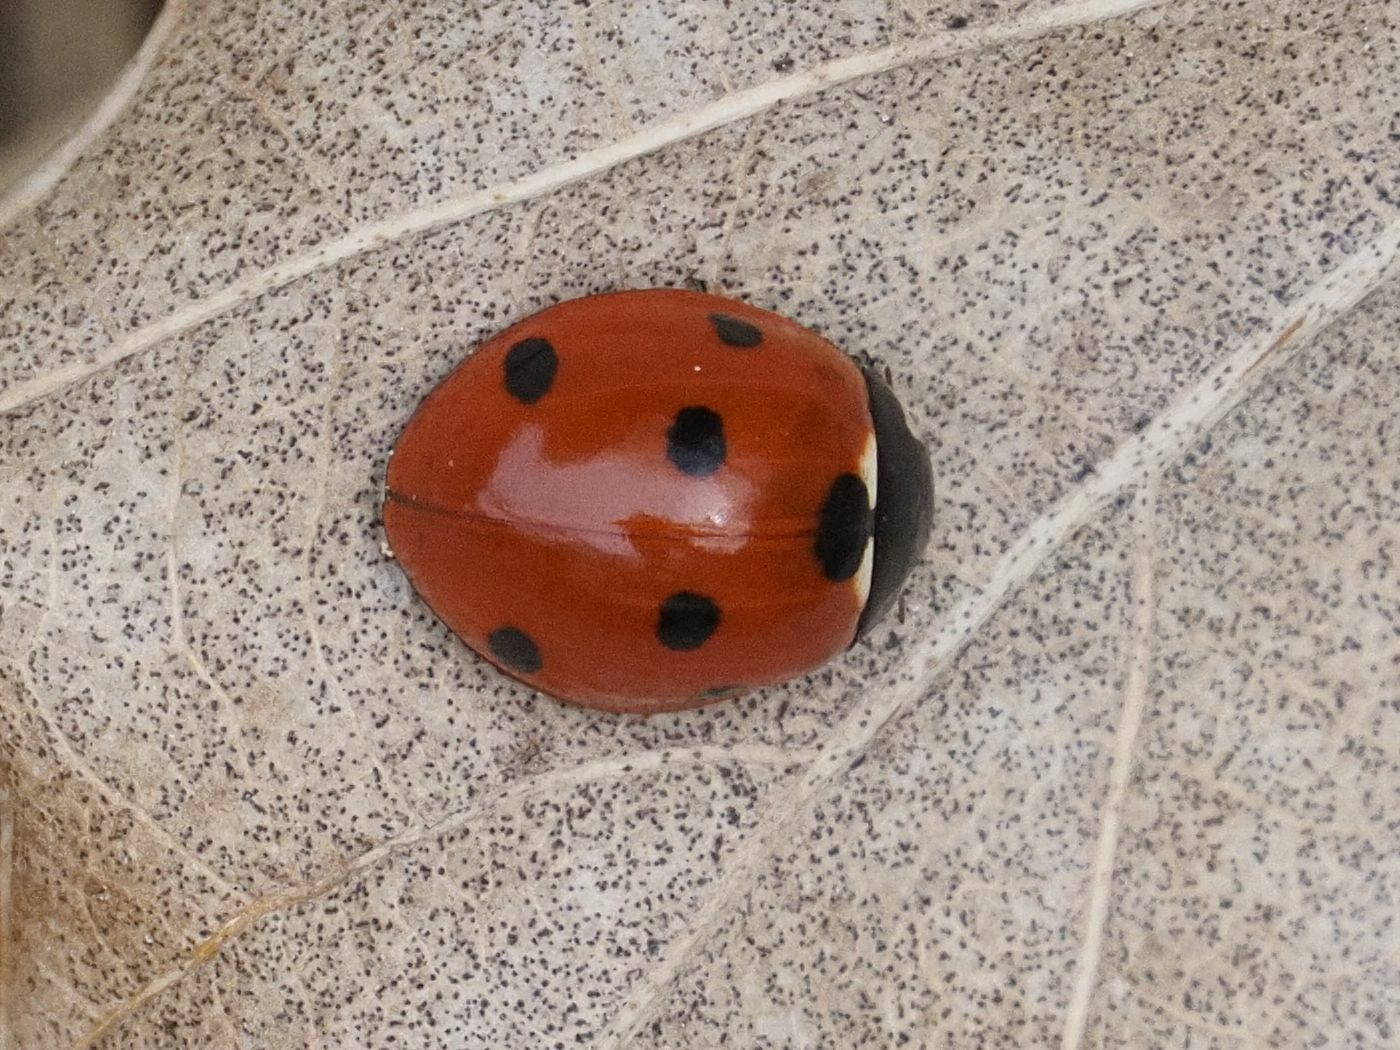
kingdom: Animalia
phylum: Arthropoda
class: Insecta
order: Coleoptera
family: Coccinellidae
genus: Coccinella
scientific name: Coccinella septempunctata
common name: Sevenspotted lady beetle
